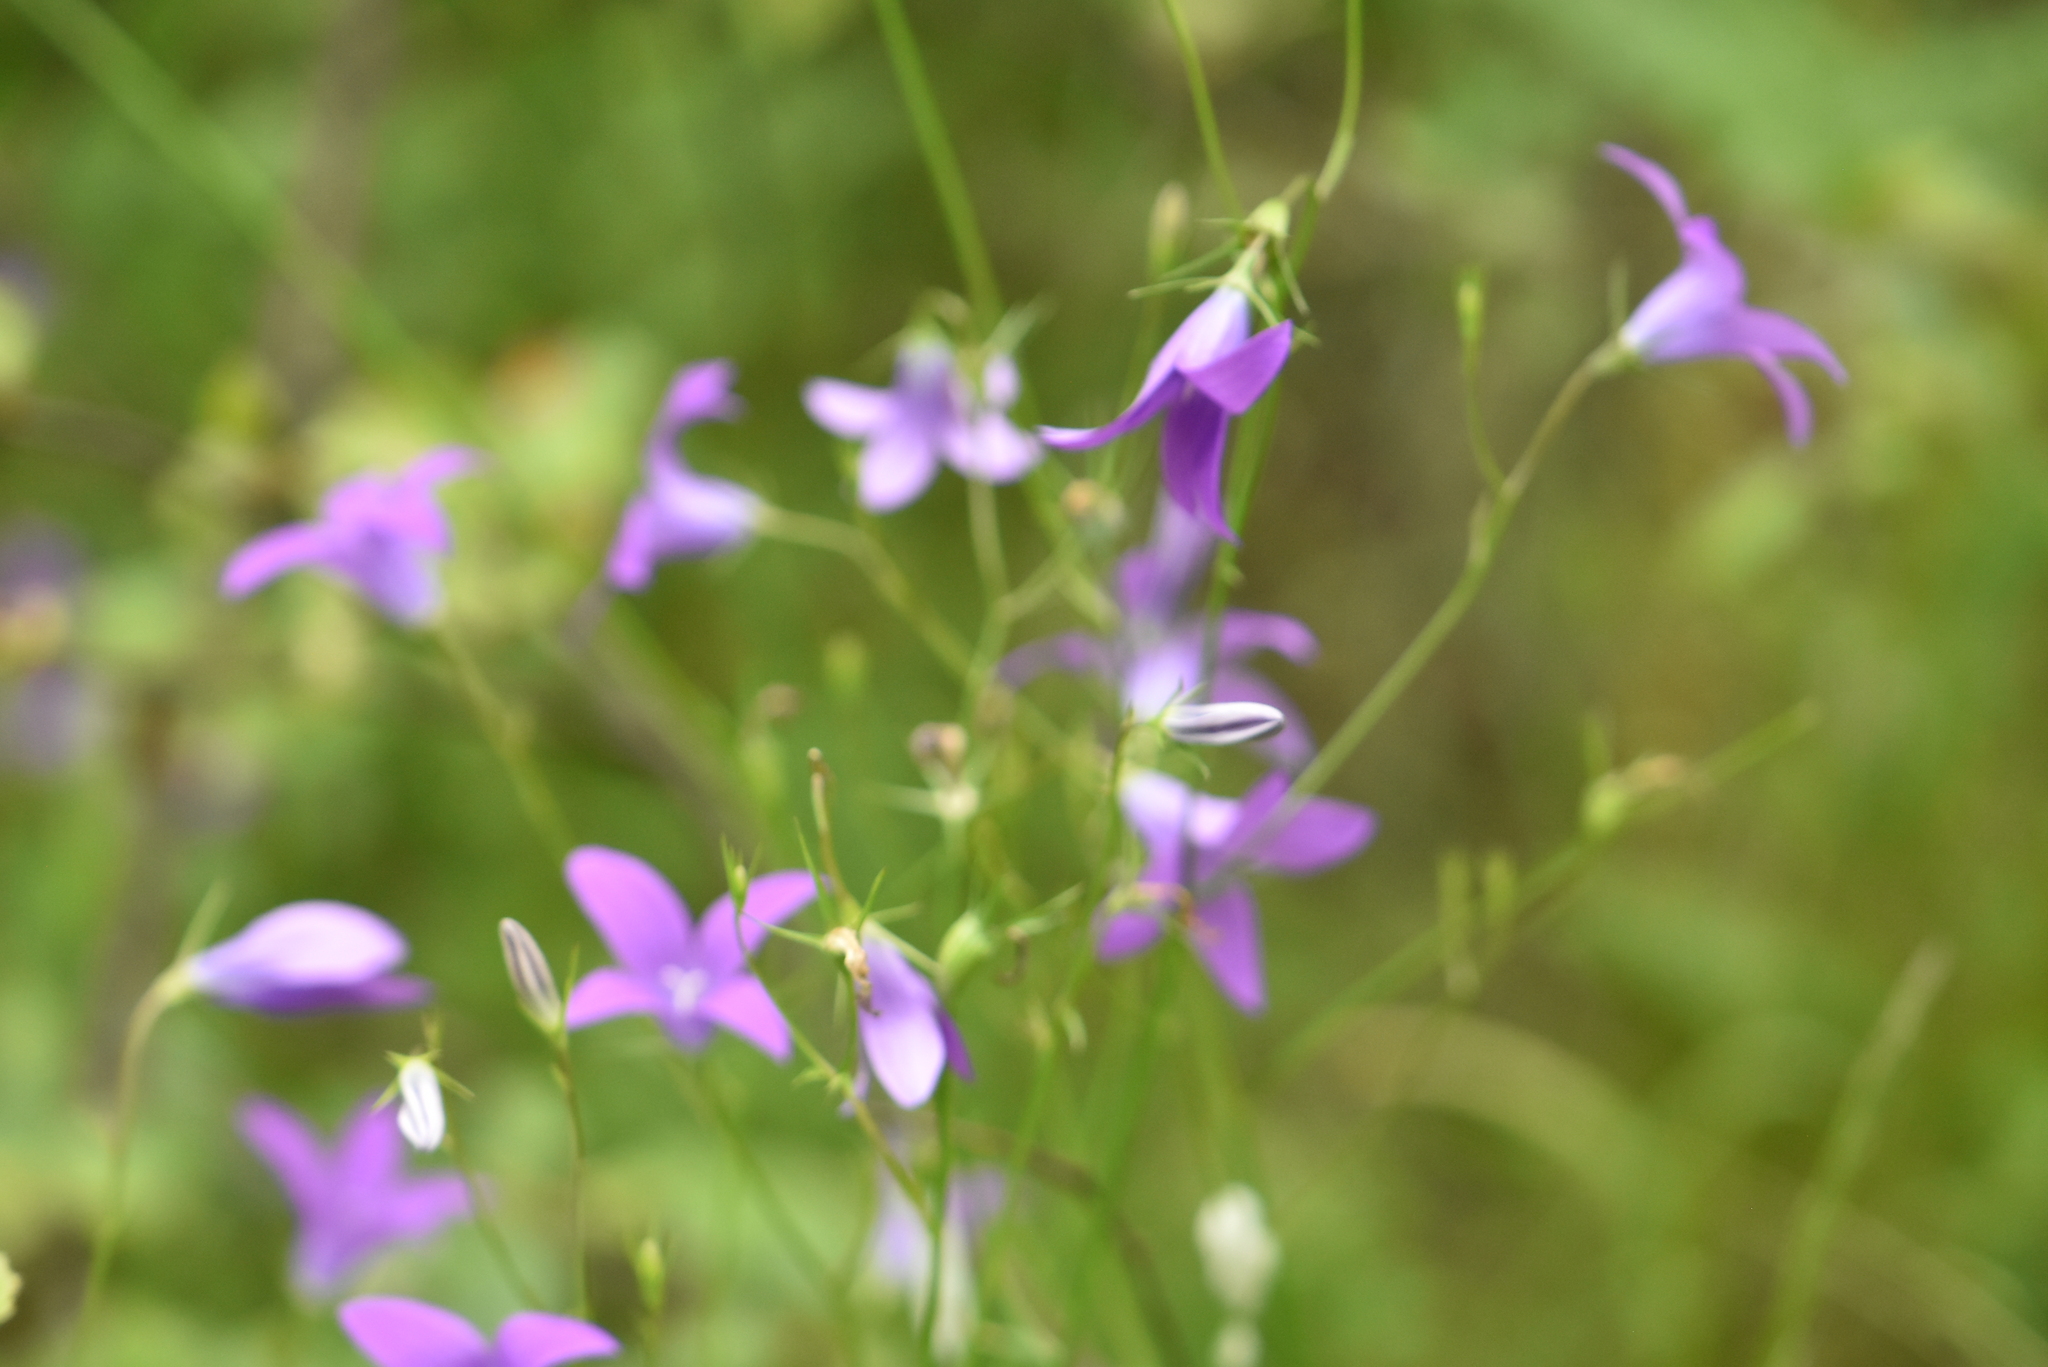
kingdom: Plantae
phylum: Tracheophyta
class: Magnoliopsida
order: Asterales
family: Campanulaceae
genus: Campanula
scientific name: Campanula patula
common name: Spreading bellflower
